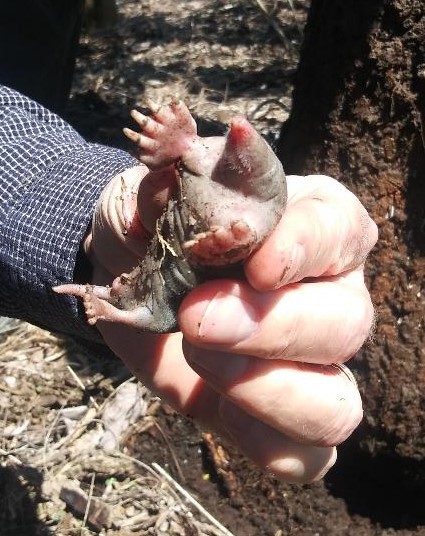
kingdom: Animalia
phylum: Chordata
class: Mammalia
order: Soricomorpha
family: Talpidae
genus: Scalopus
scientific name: Scalopus aquaticus
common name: Eastern mole
